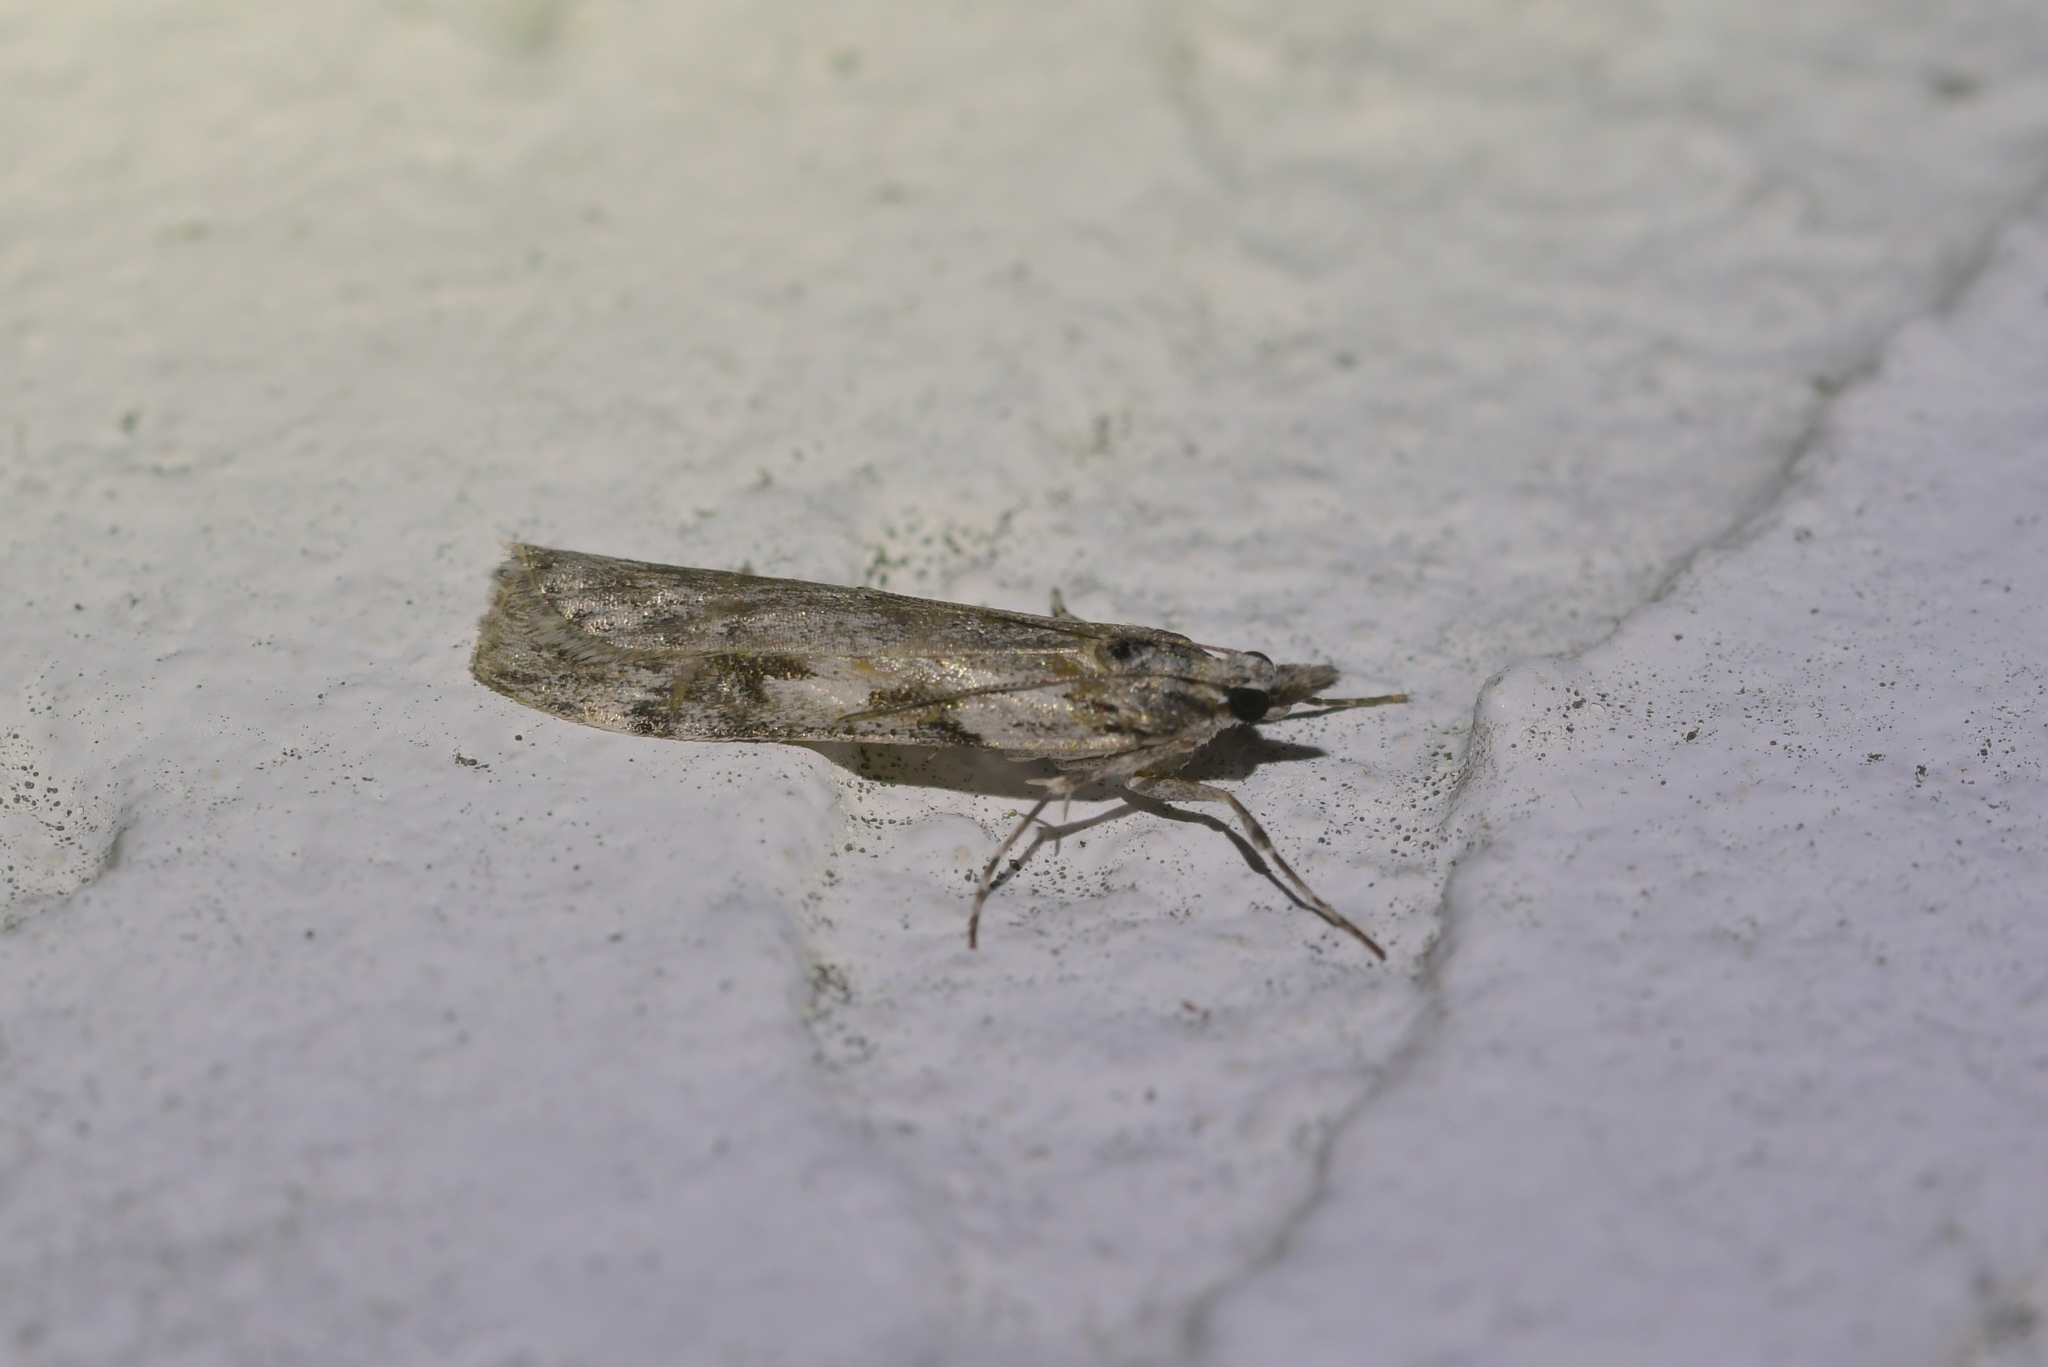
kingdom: Animalia
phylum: Arthropoda
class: Insecta
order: Lepidoptera
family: Crambidae
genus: Scoparia
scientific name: Scoparia halopis
